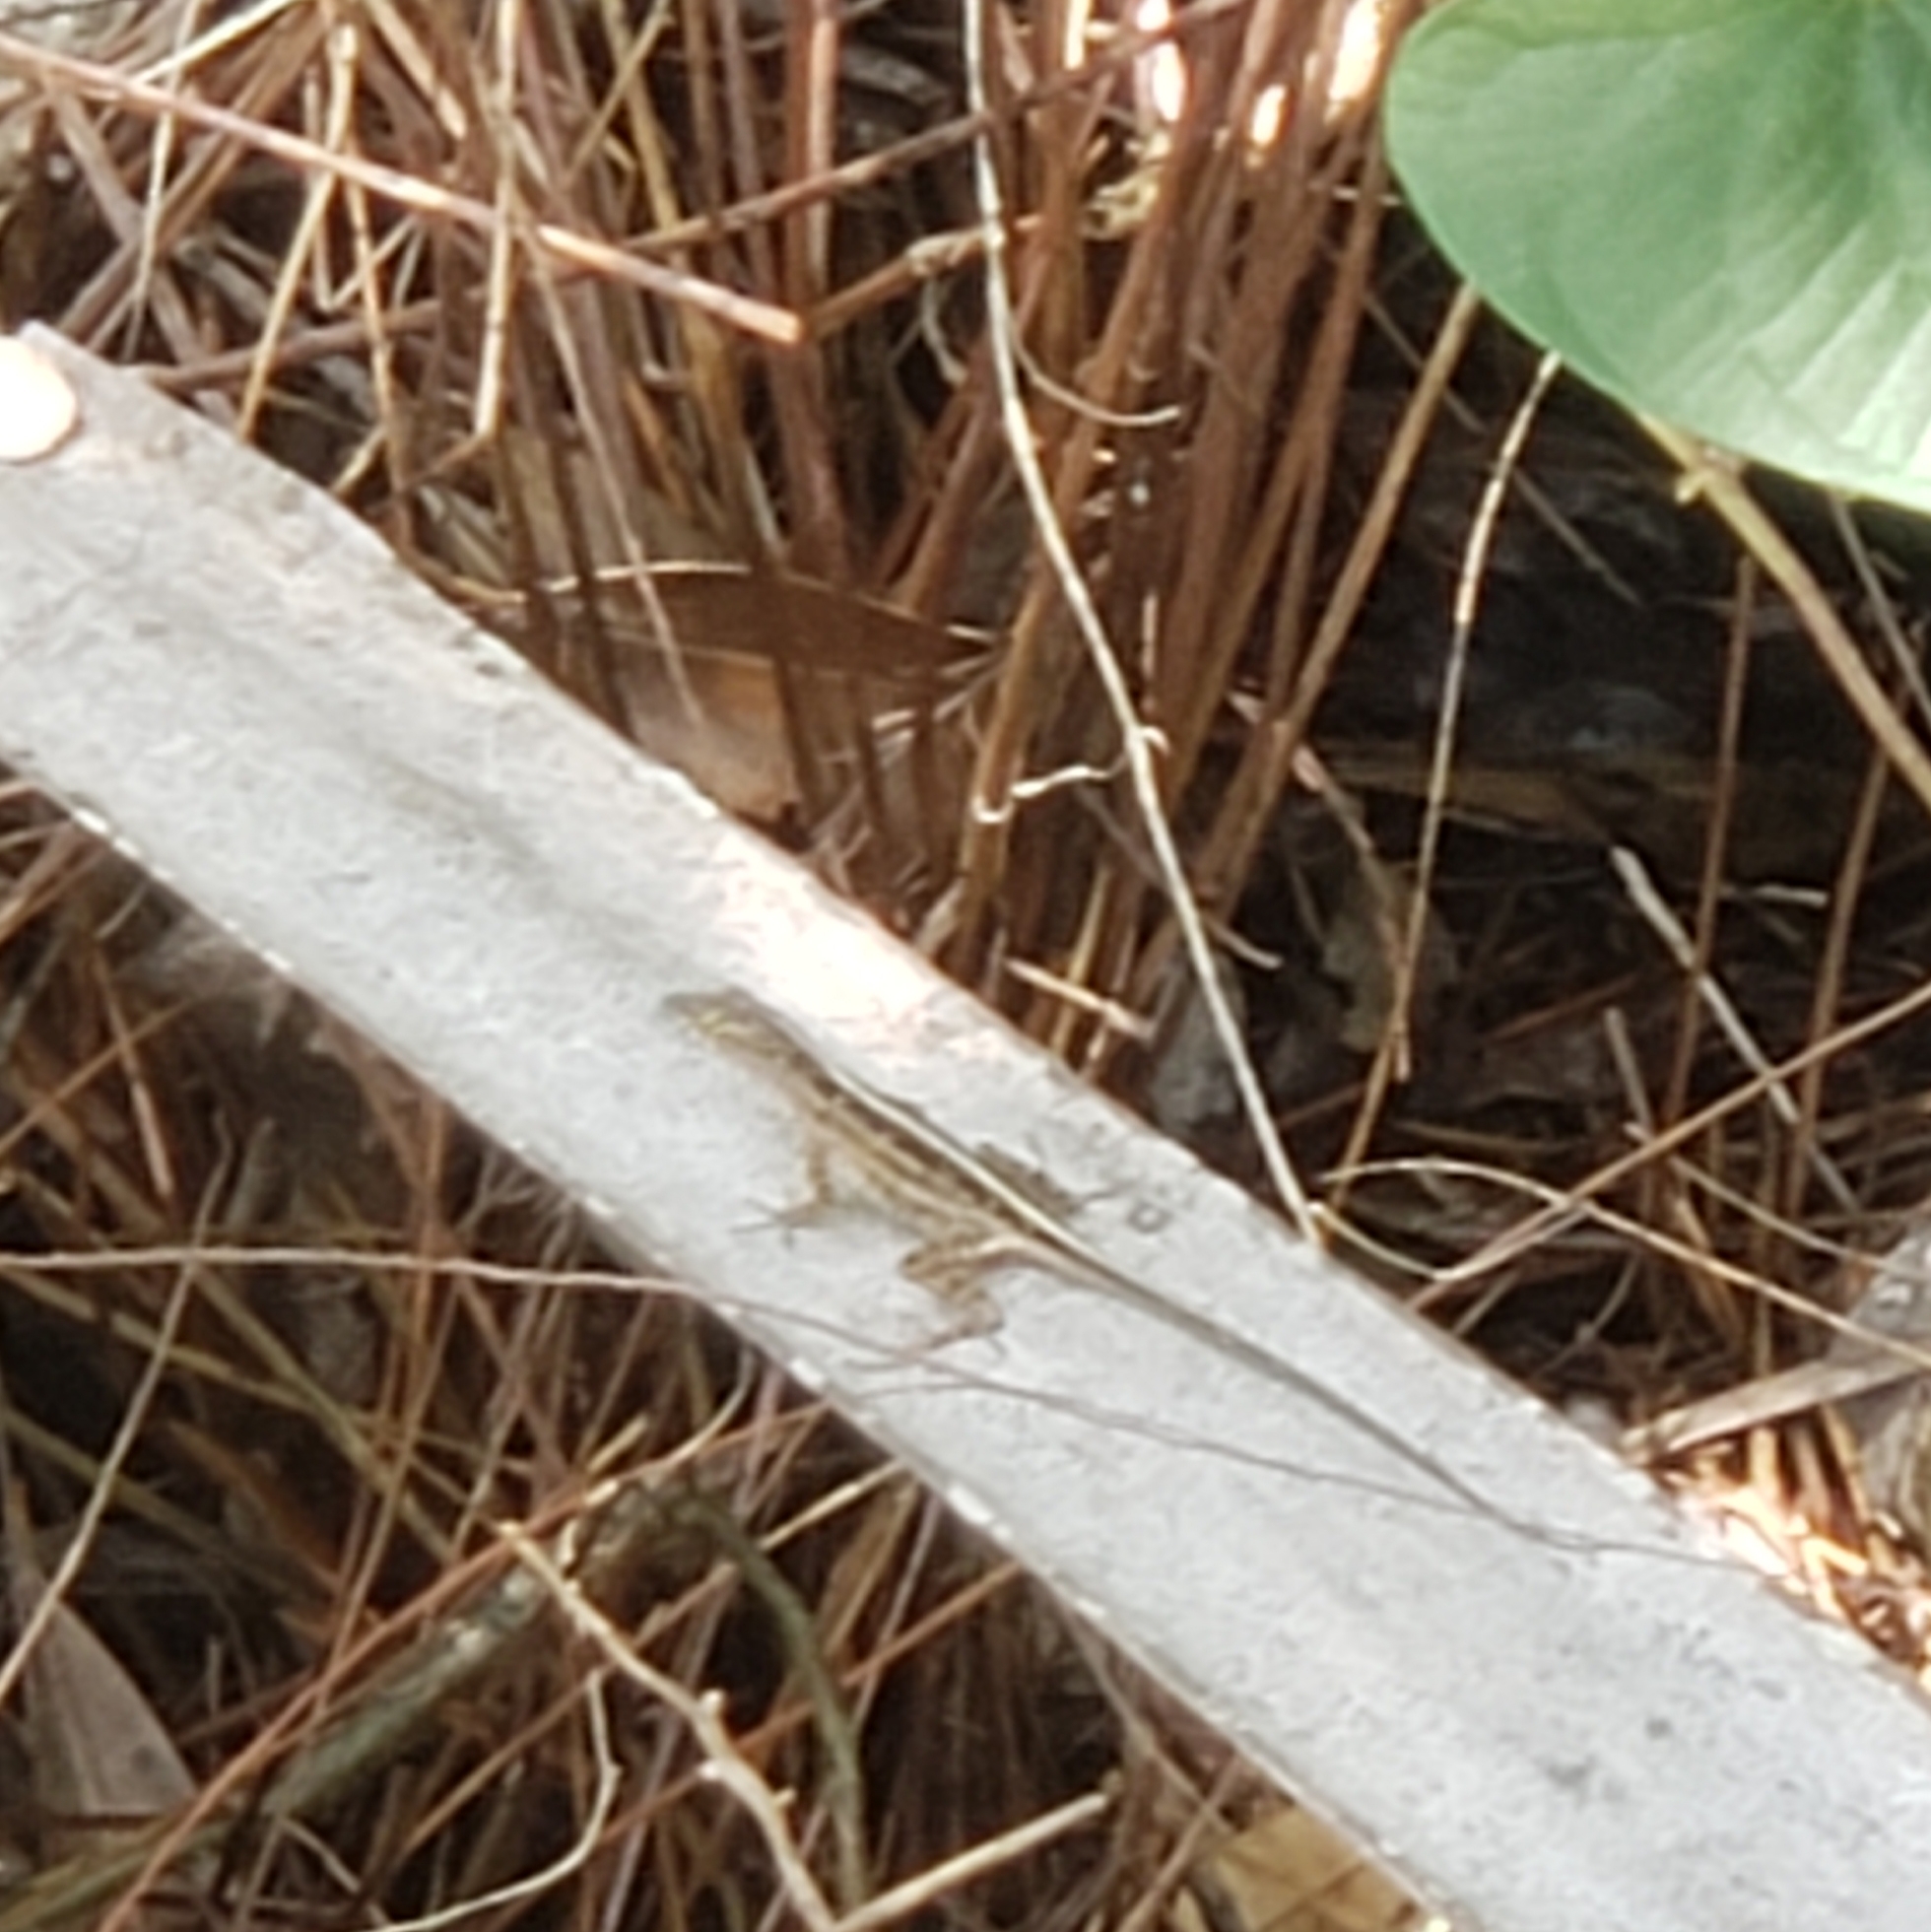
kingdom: Animalia
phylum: Chordata
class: Squamata
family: Dactyloidae
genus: Anolis
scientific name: Anolis sagrei
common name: Brown anole
